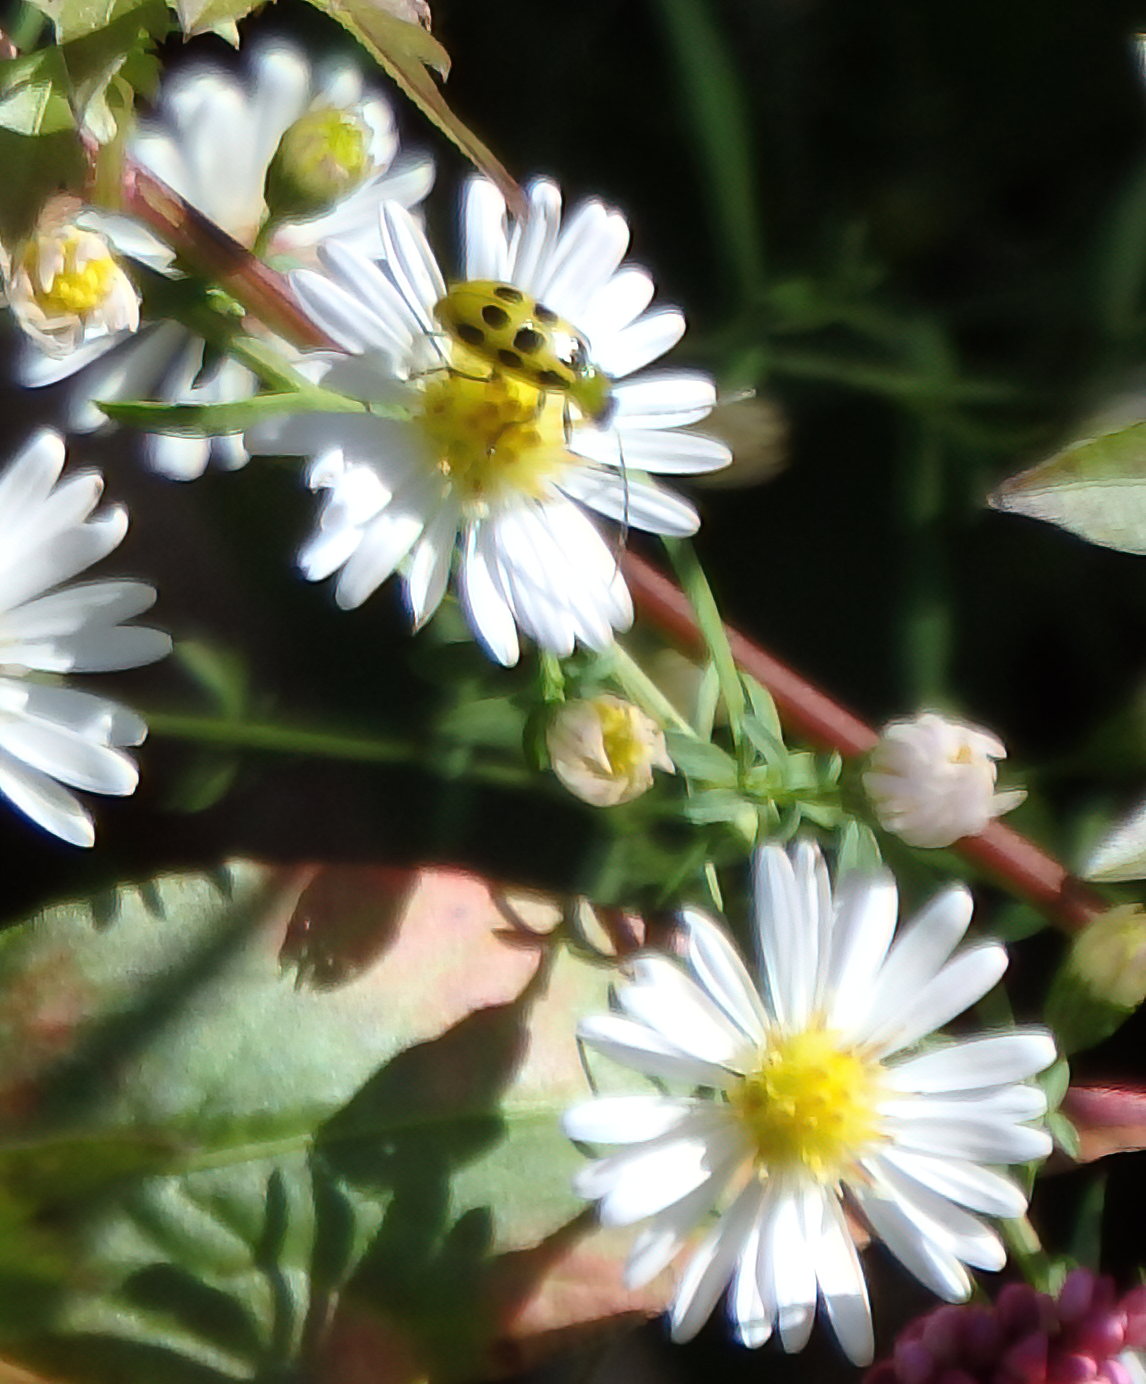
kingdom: Animalia
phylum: Arthropoda
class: Insecta
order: Coleoptera
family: Chrysomelidae
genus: Diabrotica
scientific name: Diabrotica undecimpunctata
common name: Spotted cucumber beetle
